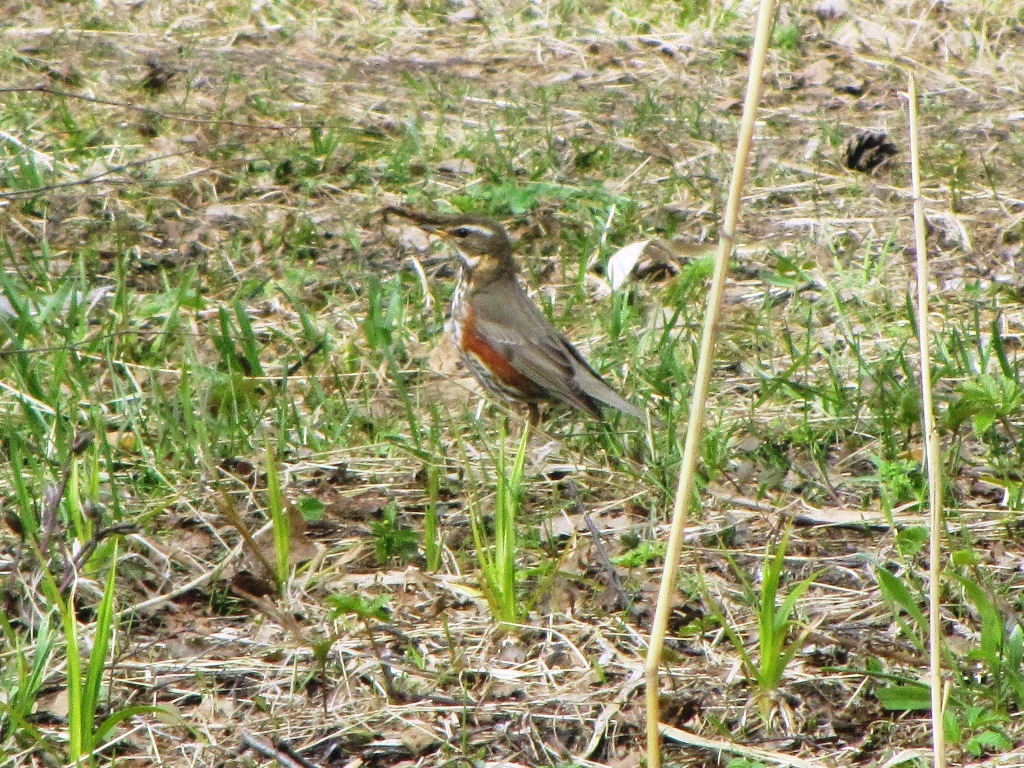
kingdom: Animalia
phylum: Chordata
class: Aves
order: Passeriformes
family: Turdidae
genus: Turdus
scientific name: Turdus iliacus
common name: Redwing
